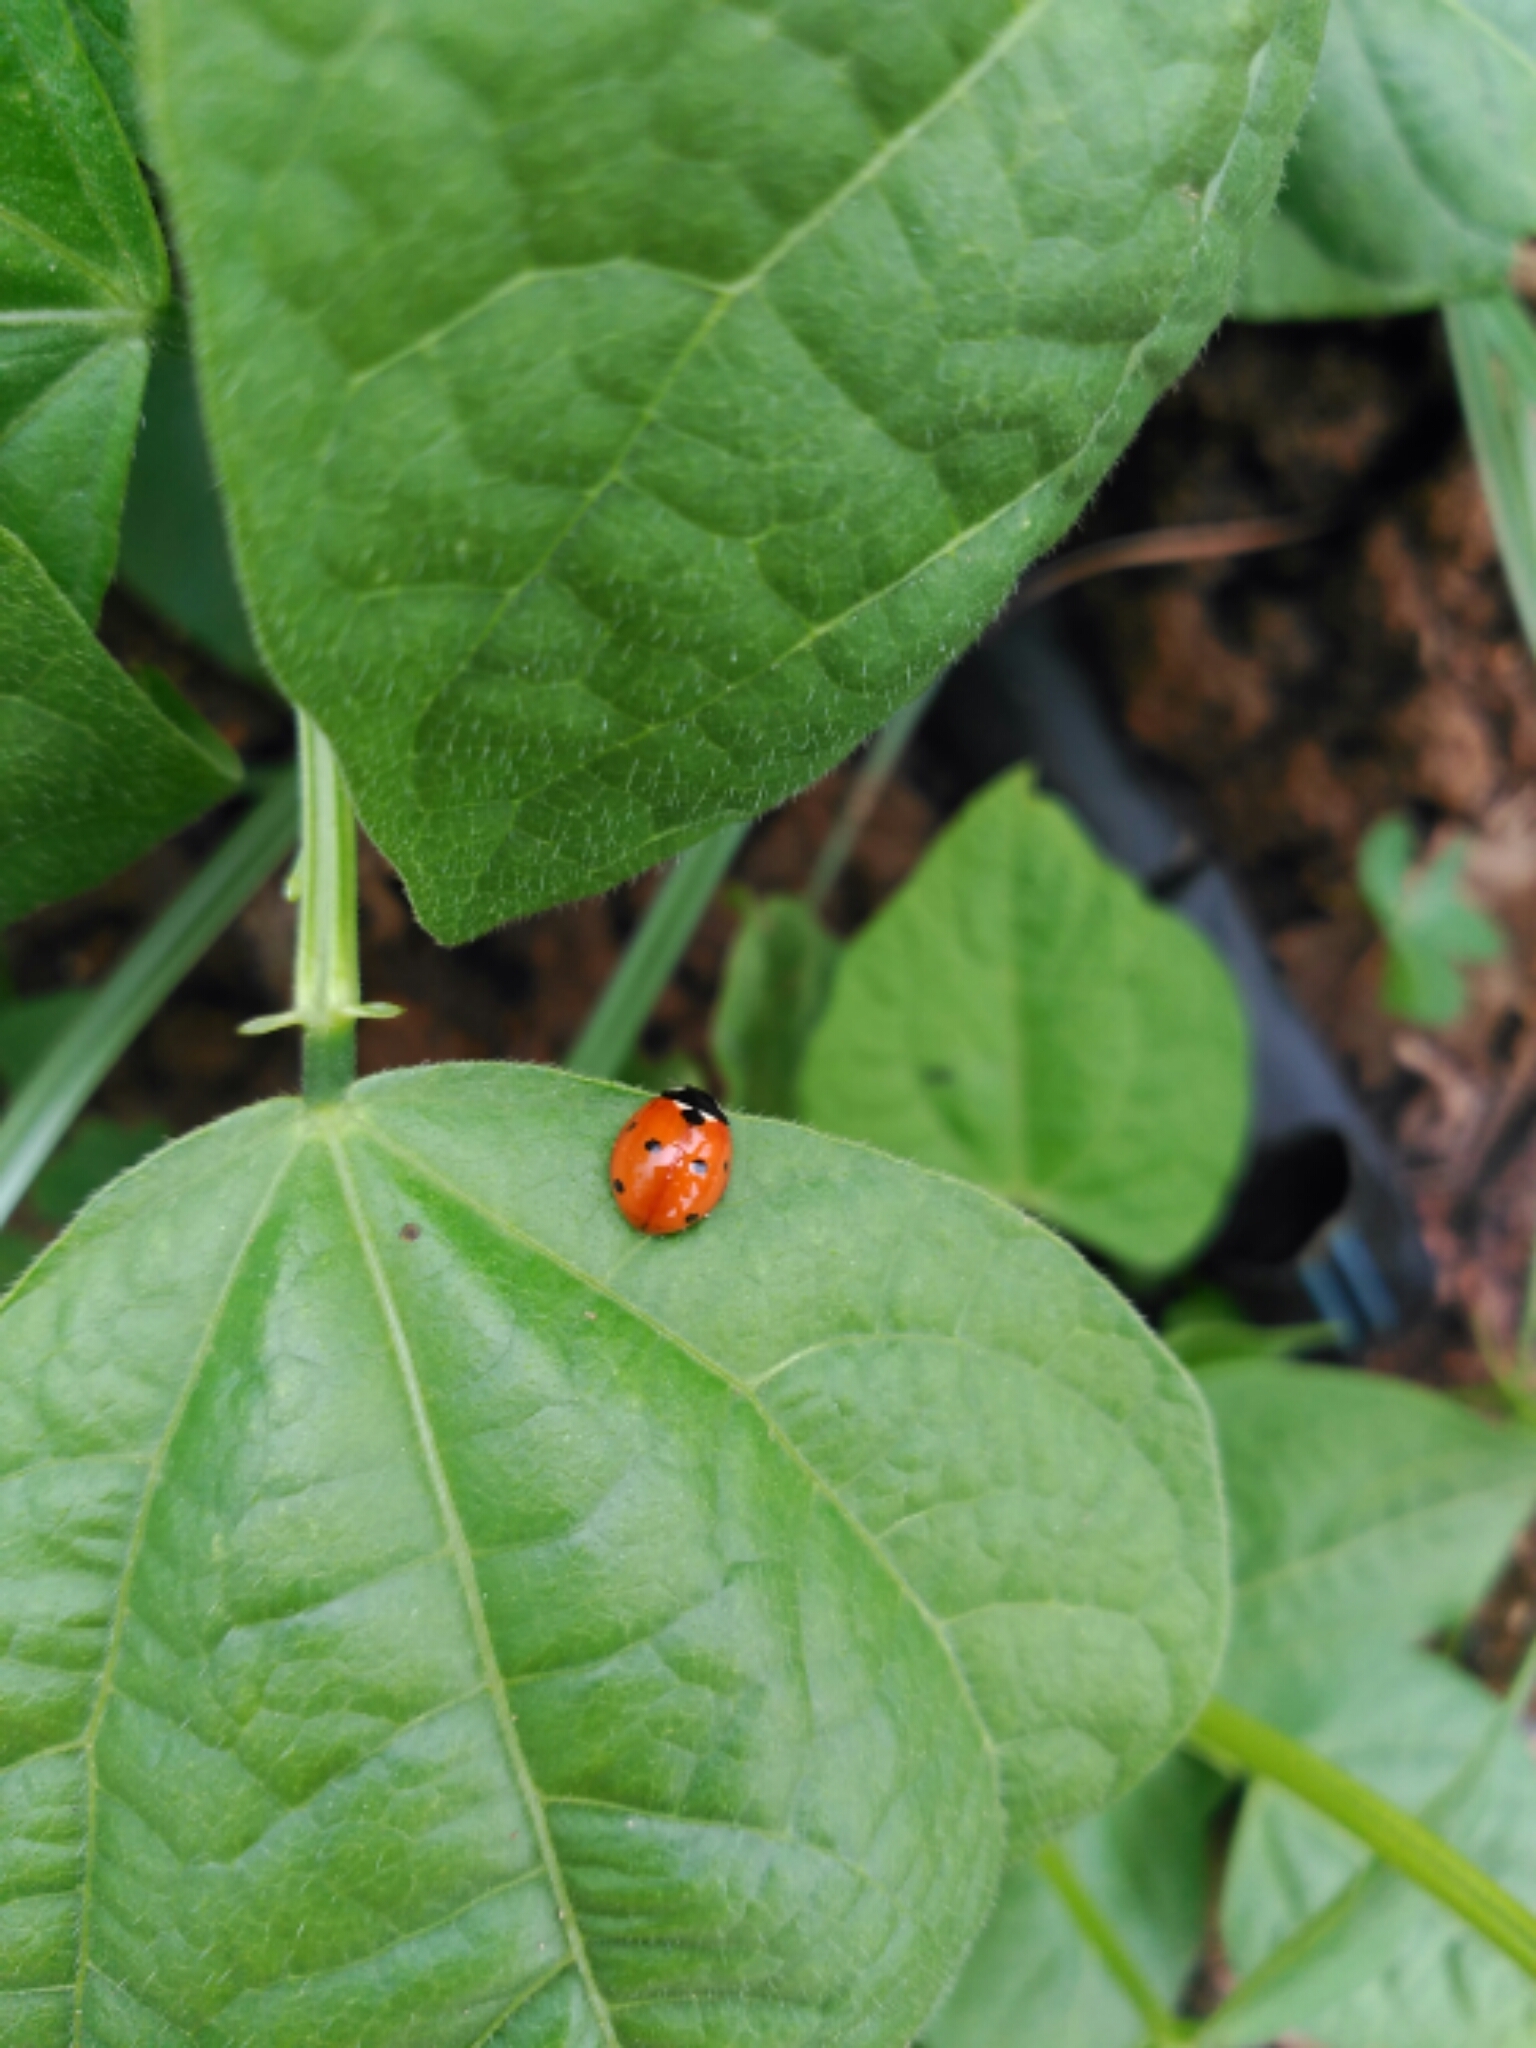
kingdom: Animalia
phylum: Arthropoda
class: Insecta
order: Coleoptera
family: Coccinellidae
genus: Coccinella
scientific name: Coccinella septempunctata
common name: Sevenspotted lady beetle
